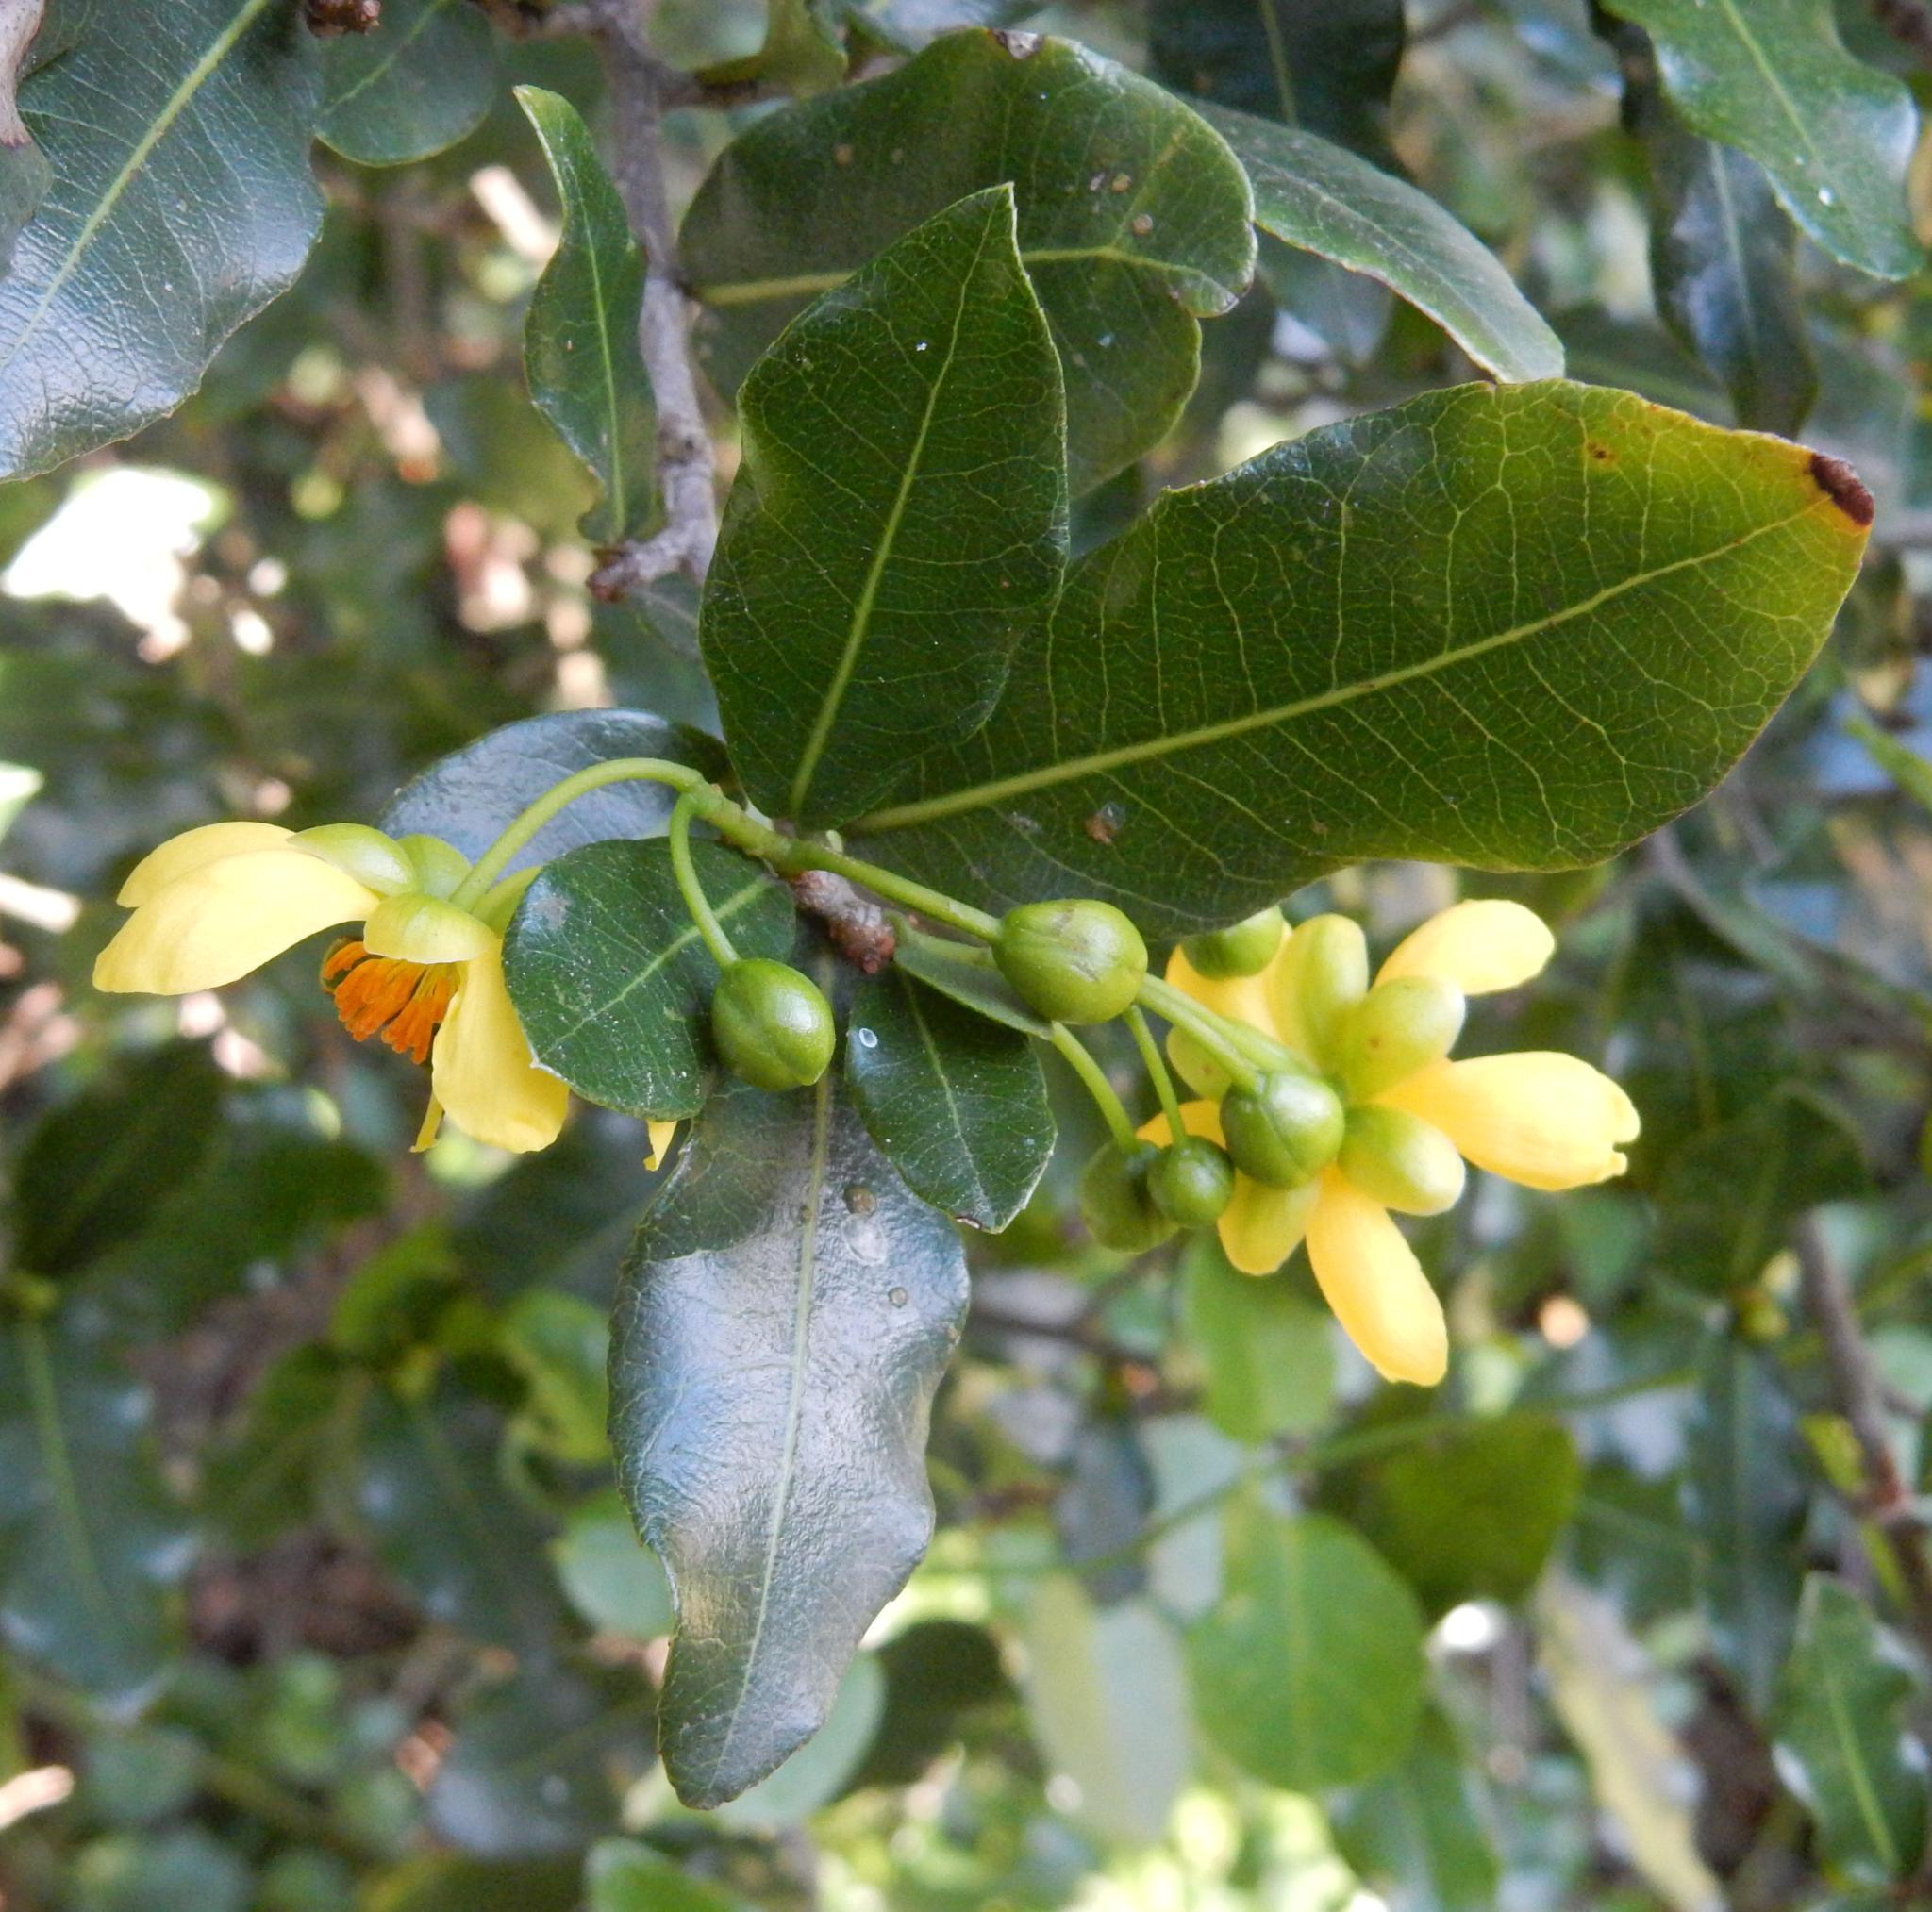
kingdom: Plantae
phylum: Tracheophyta
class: Magnoliopsida
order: Malpighiales
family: Ochnaceae
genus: Ochna
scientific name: Ochna serrulata
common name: Mickey mouse plant
